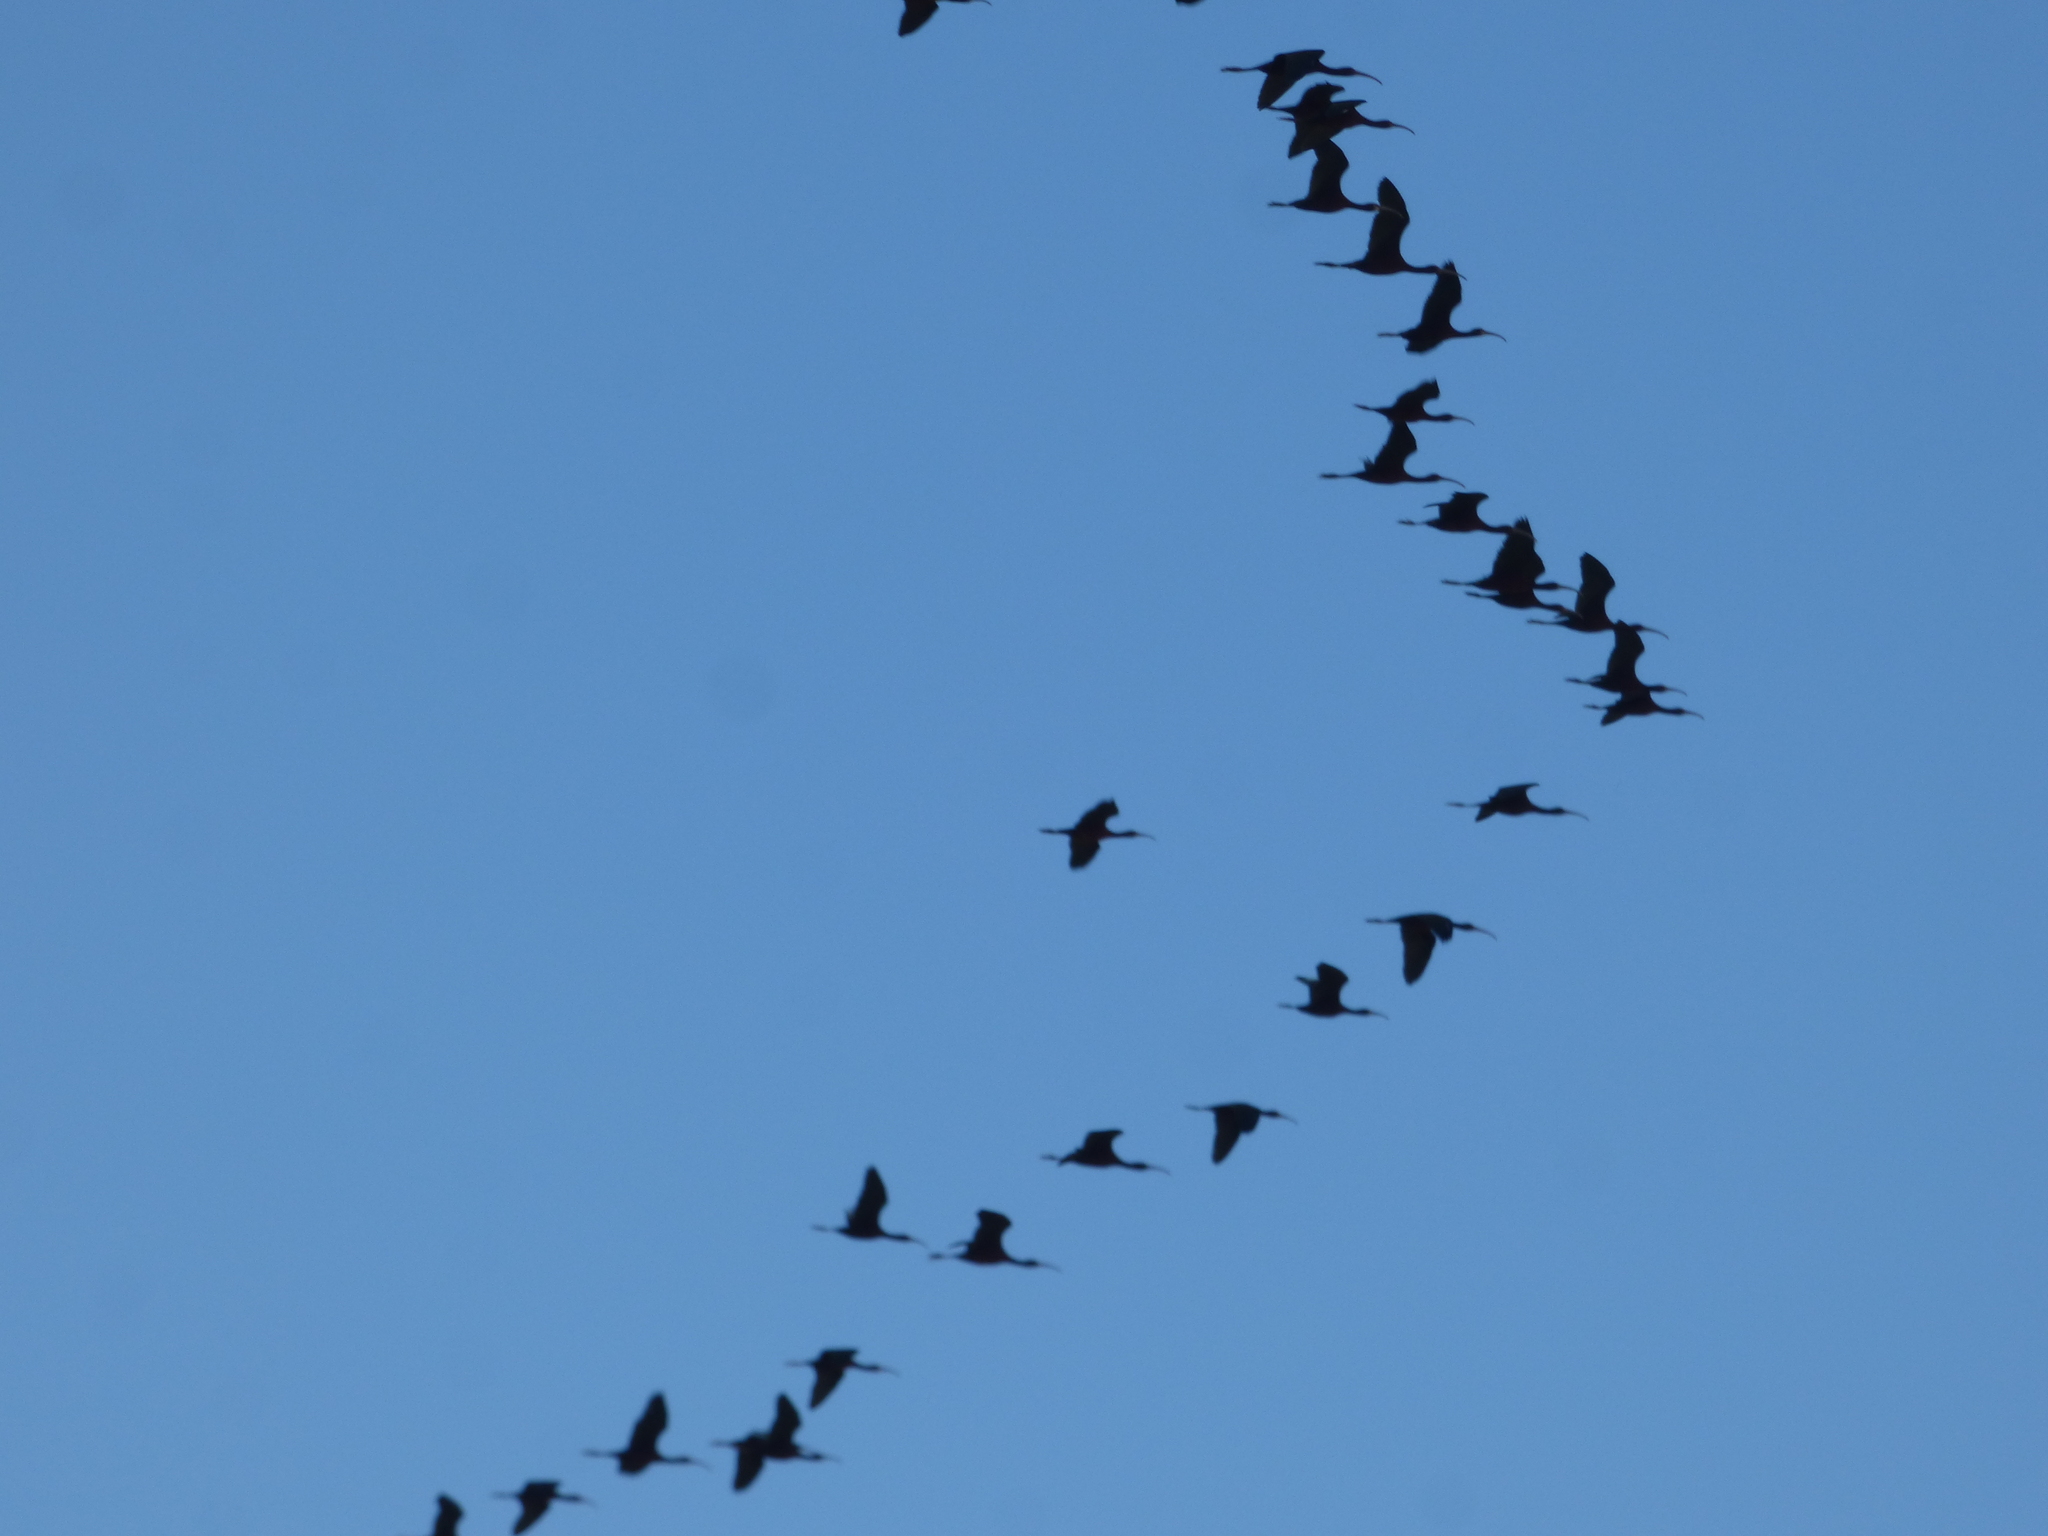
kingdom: Animalia
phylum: Chordata
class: Aves
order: Pelecaniformes
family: Threskiornithidae
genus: Plegadis
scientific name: Plegadis chihi
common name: White-faced ibis
